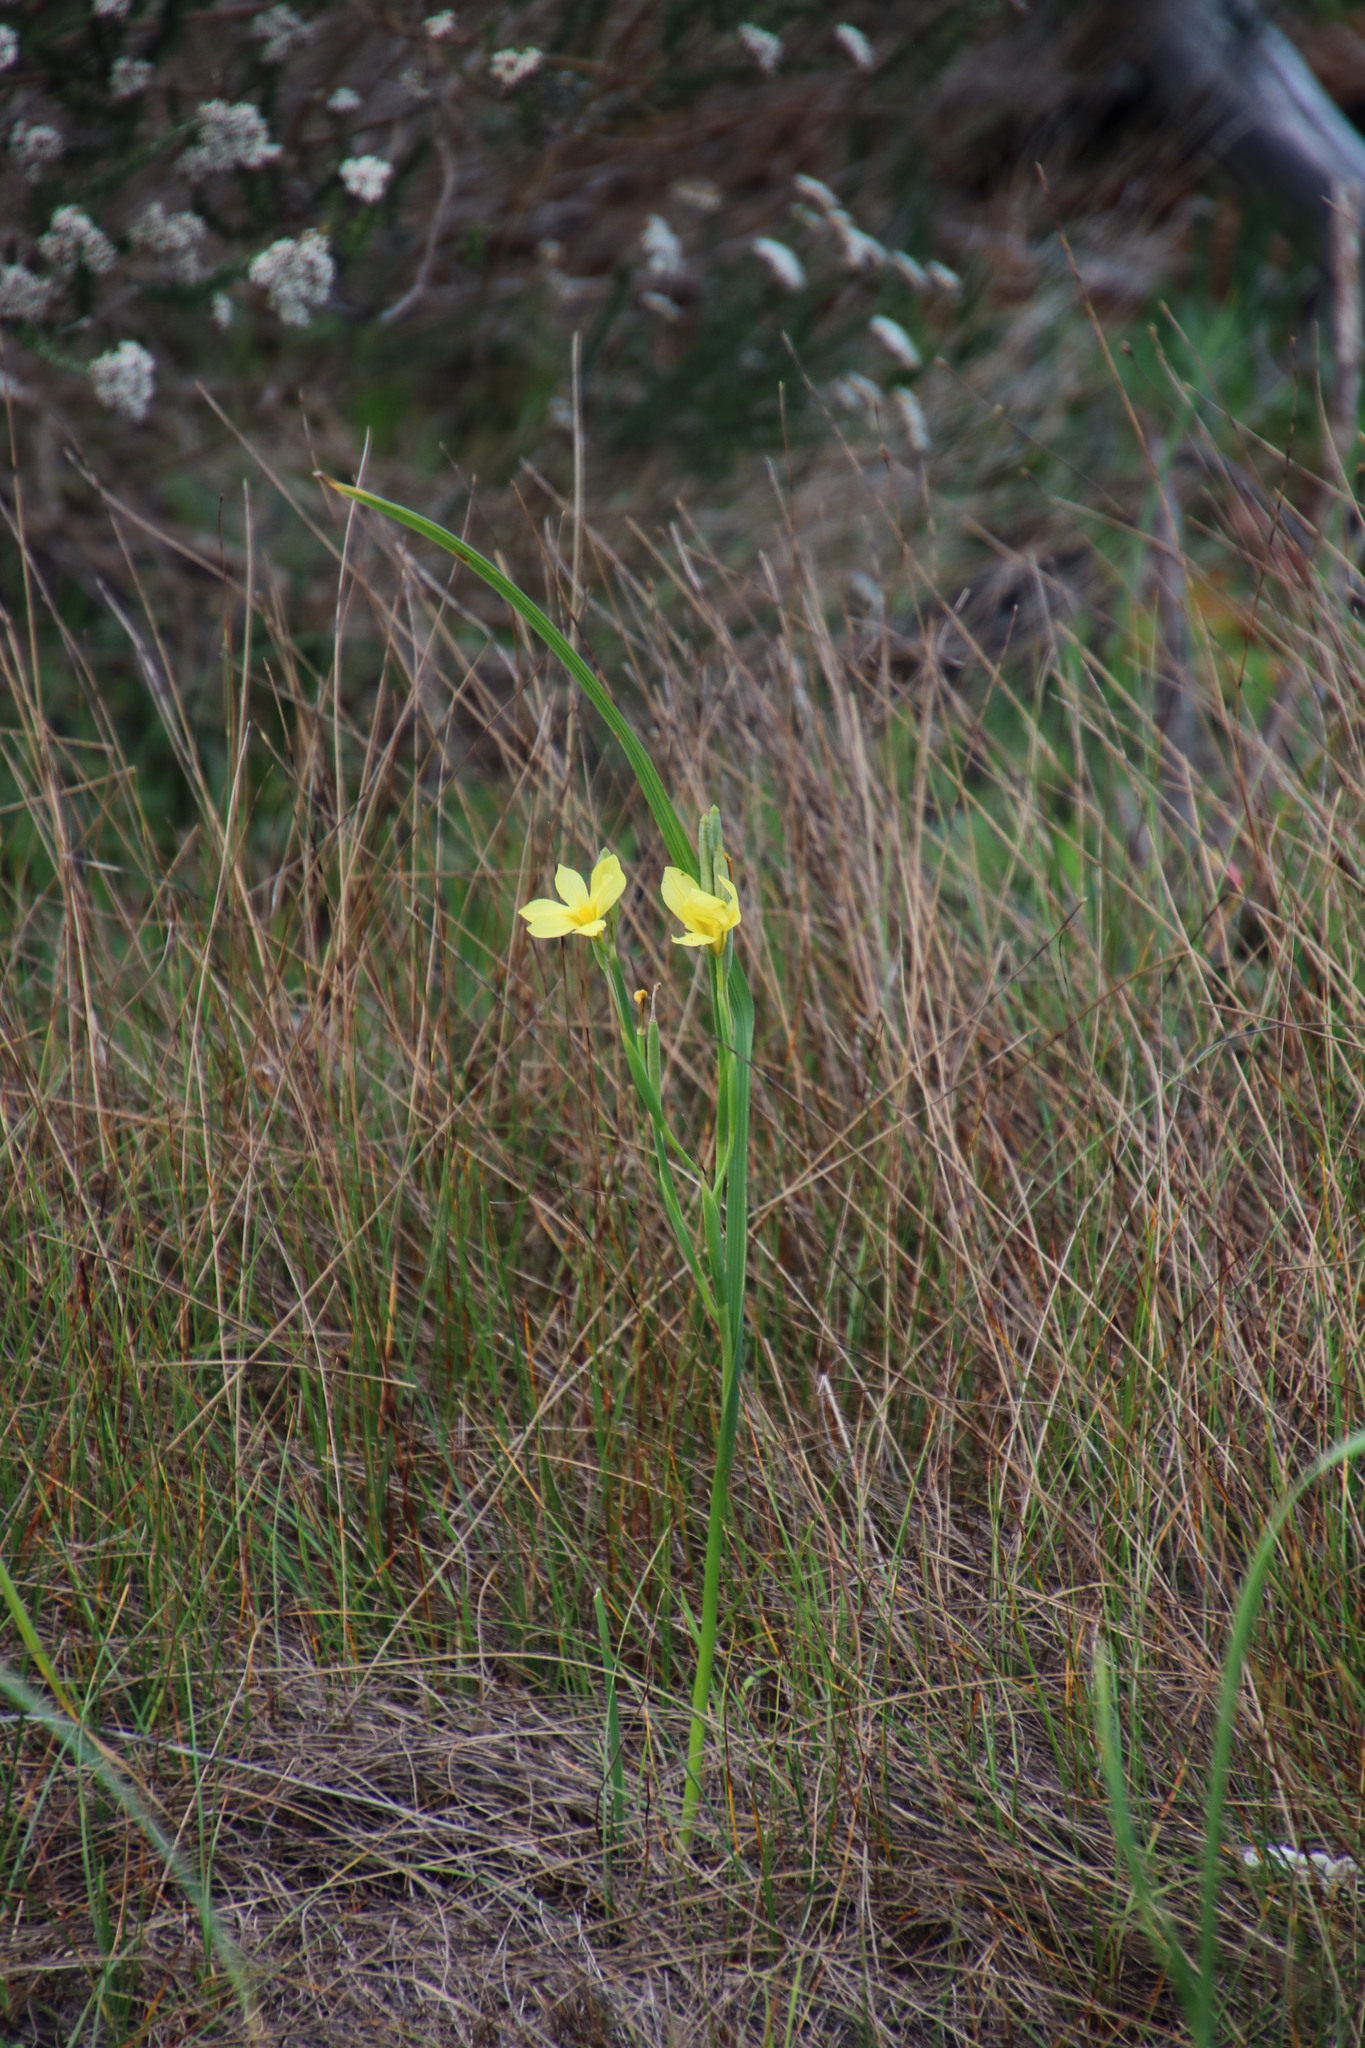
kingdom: Plantae
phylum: Tracheophyta
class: Liliopsida
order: Asparagales
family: Iridaceae
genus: Moraea
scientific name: Moraea collina
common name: Cape-tulip
